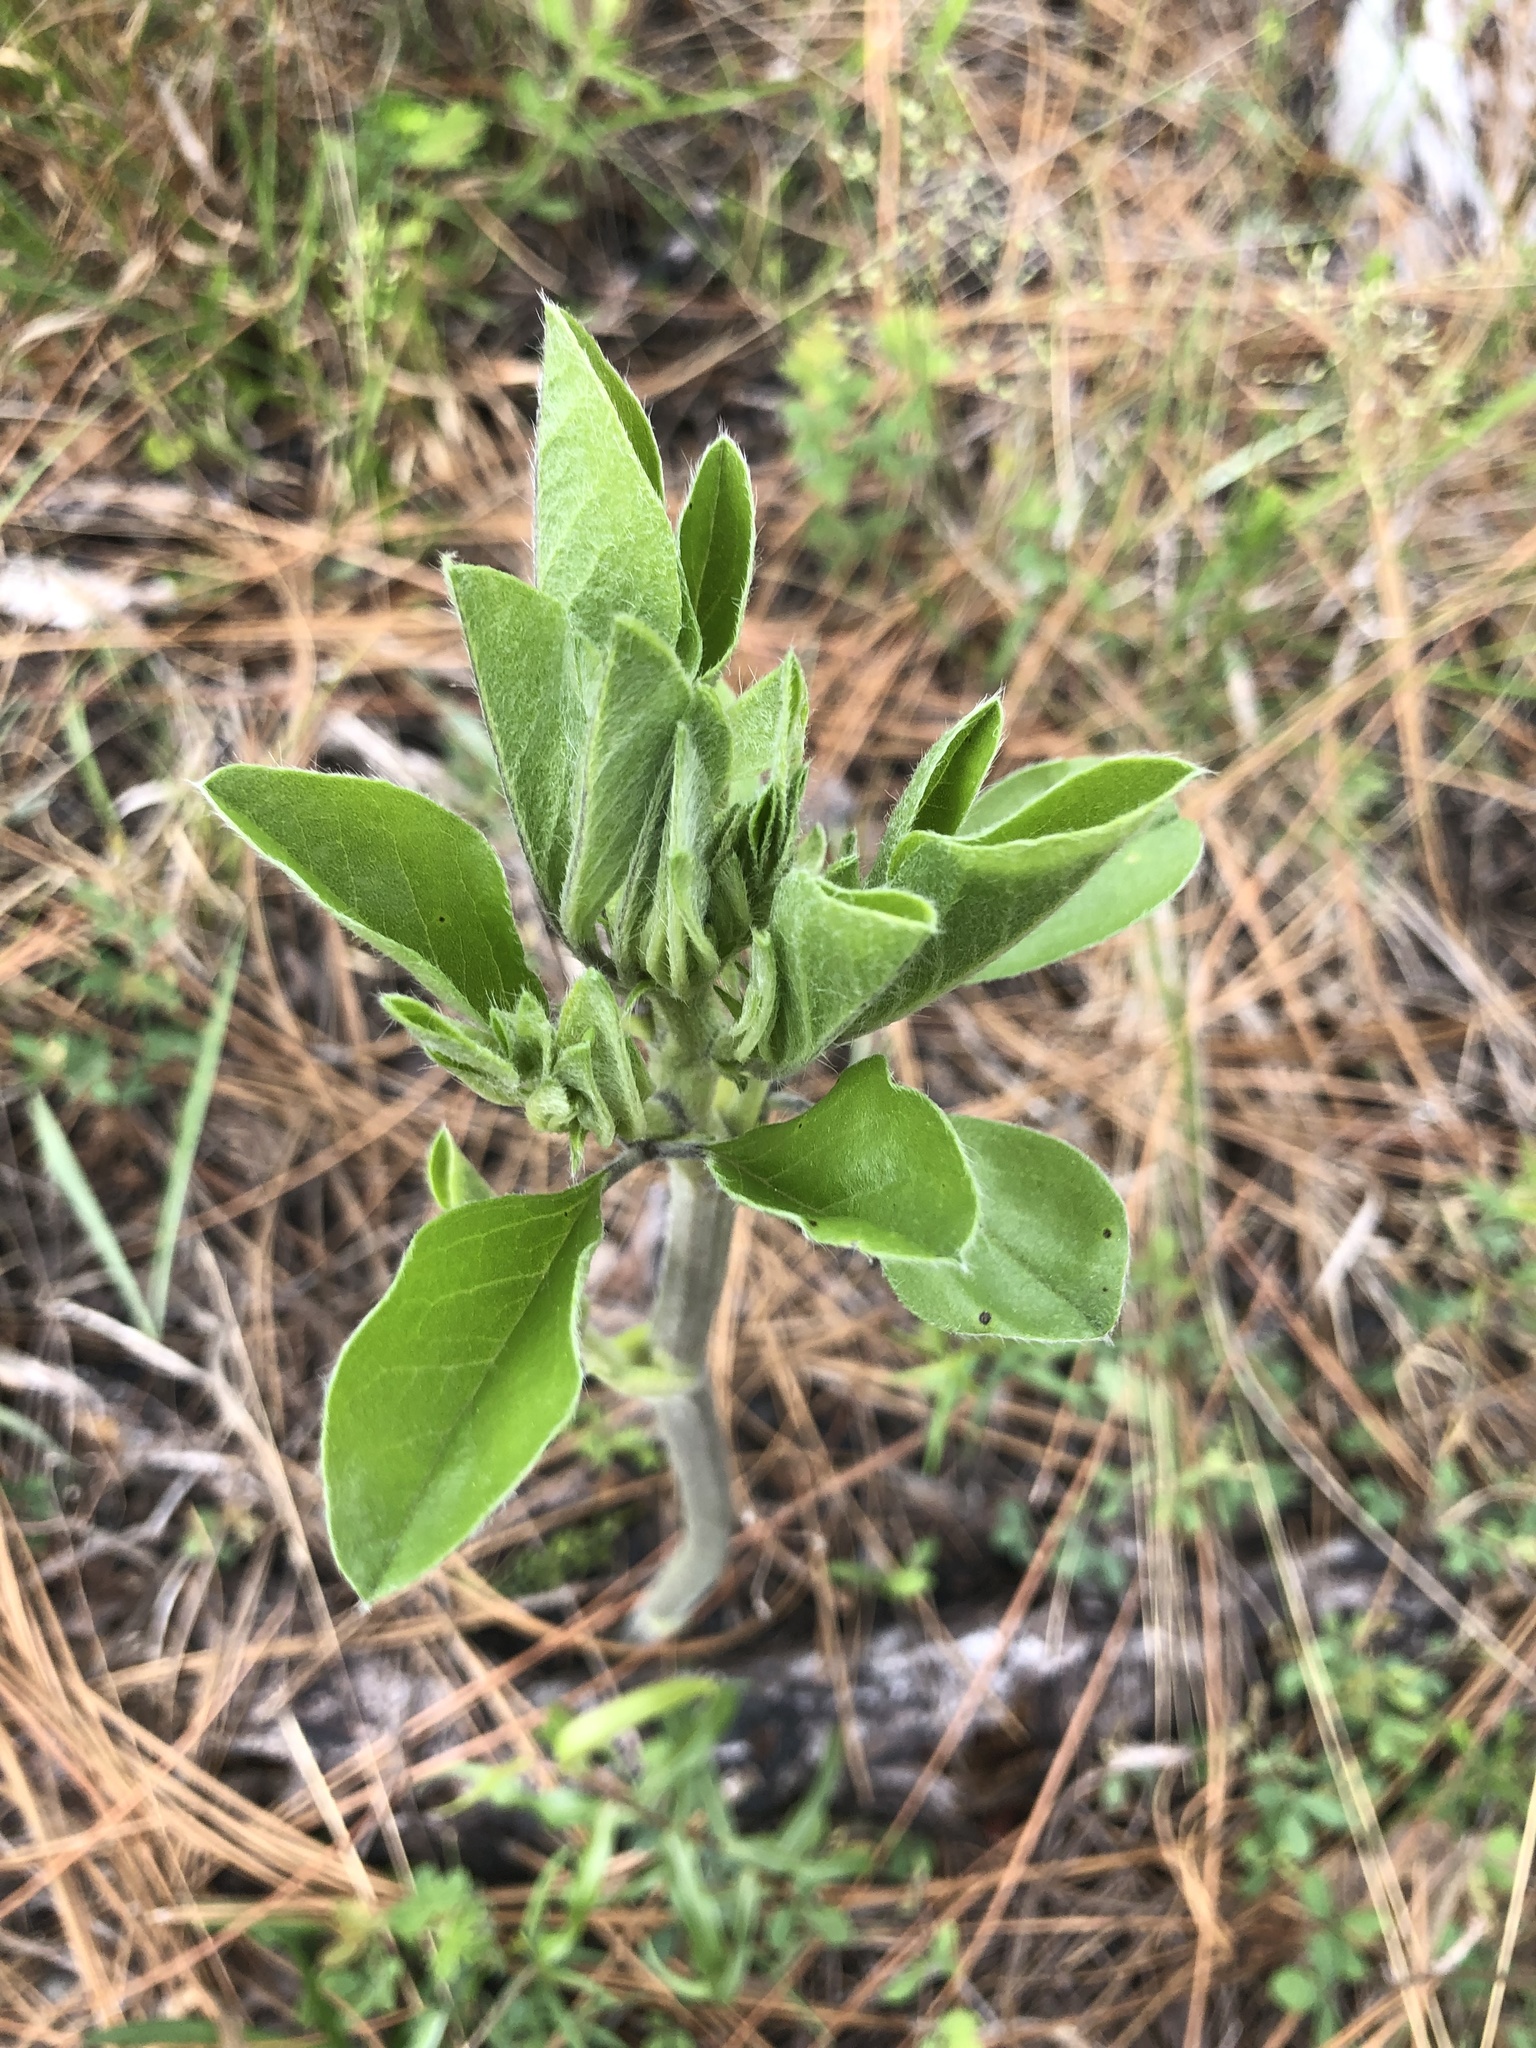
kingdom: Plantae
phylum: Tracheophyta
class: Magnoliopsida
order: Fabales
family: Fabaceae
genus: Pediomelum
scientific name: Pediomelum canescens
